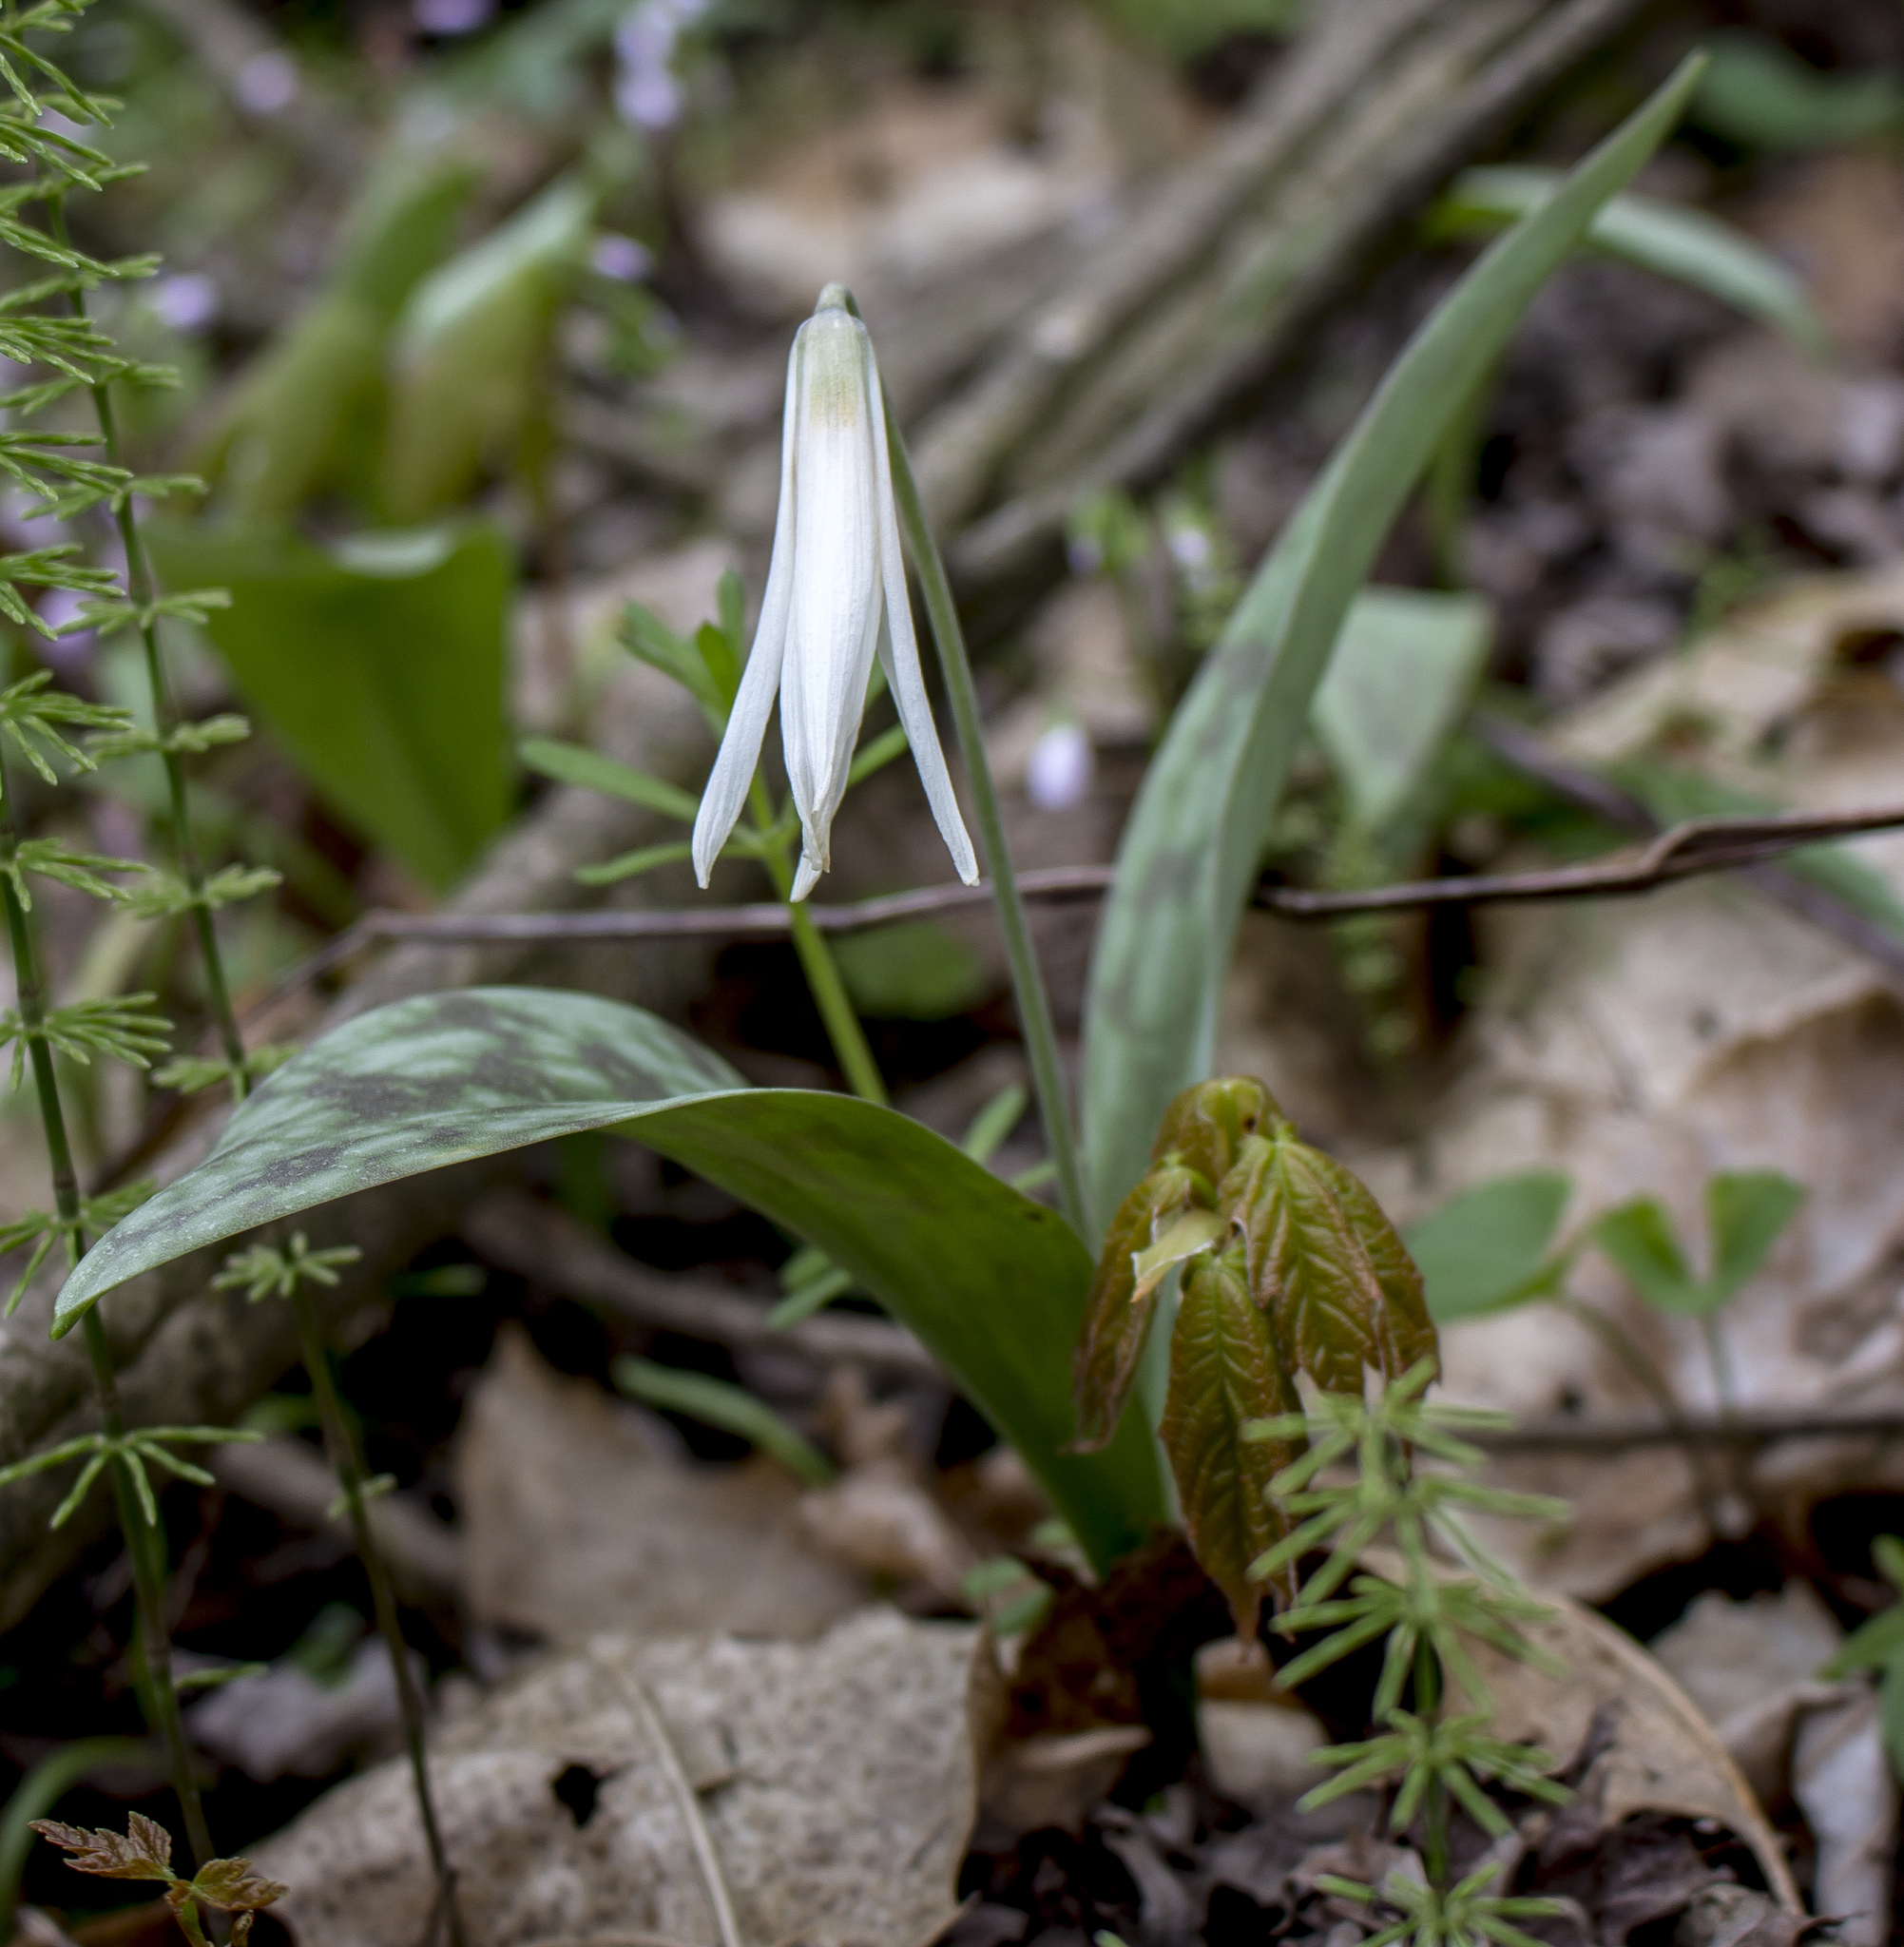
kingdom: Plantae
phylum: Tracheophyta
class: Liliopsida
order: Liliales
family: Liliaceae
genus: Erythronium
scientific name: Erythronium albidum
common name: White trout-lily
